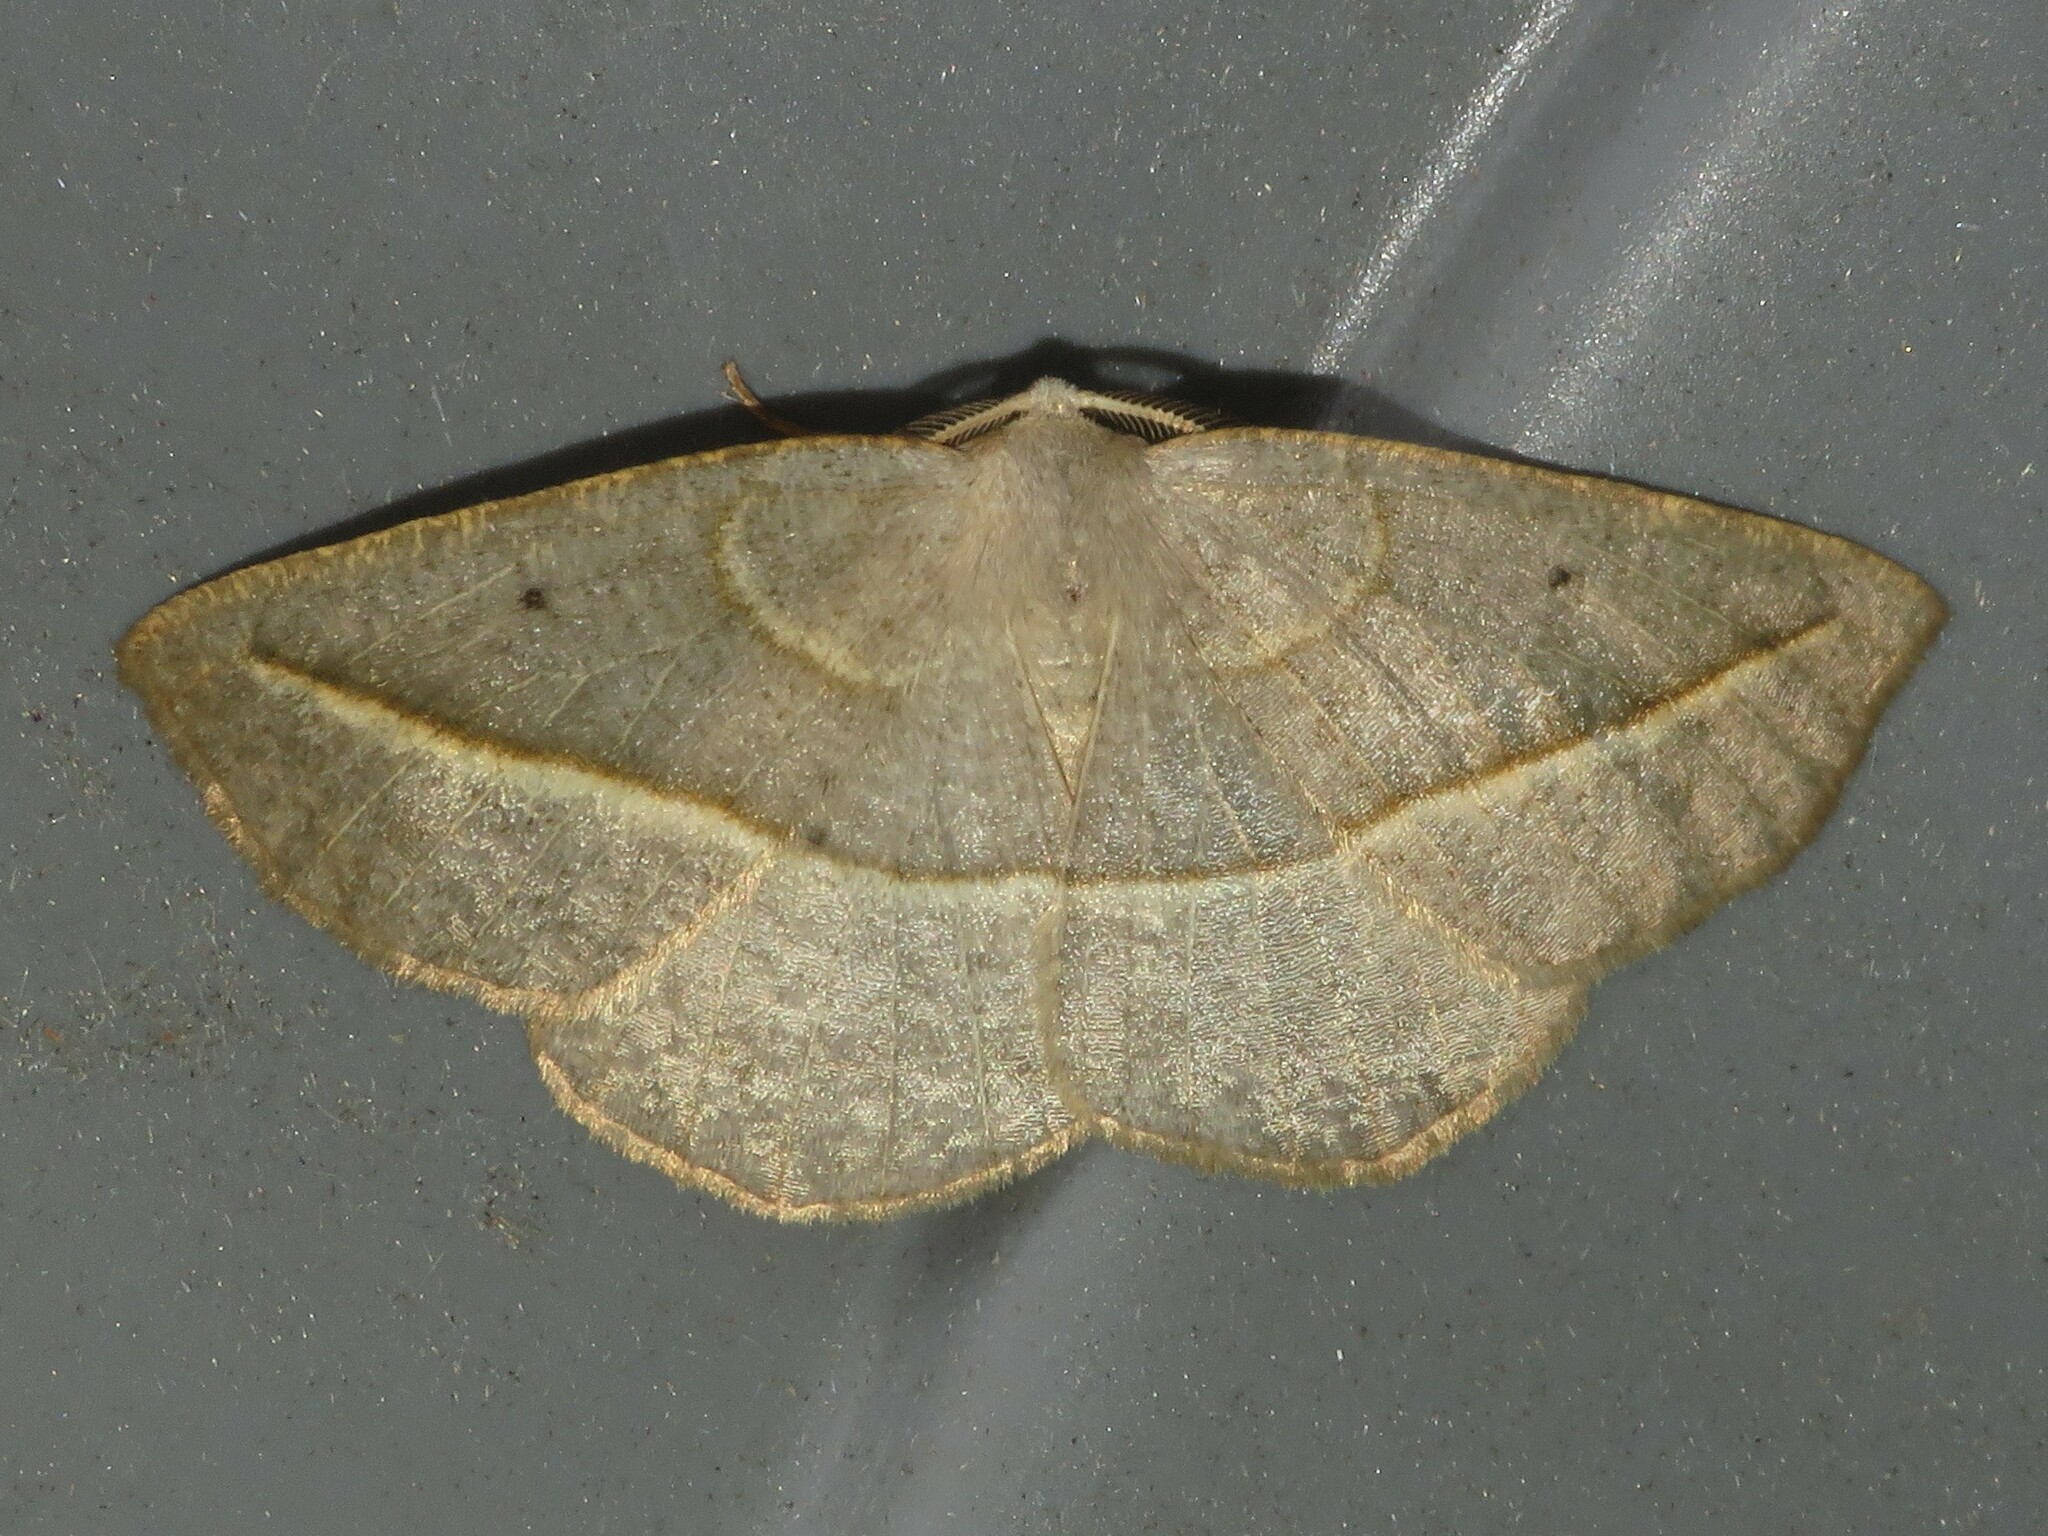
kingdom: Animalia
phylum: Arthropoda
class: Insecta
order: Lepidoptera
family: Geometridae
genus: Eusarca
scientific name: Eusarca confusaria
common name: Confused eusarca
